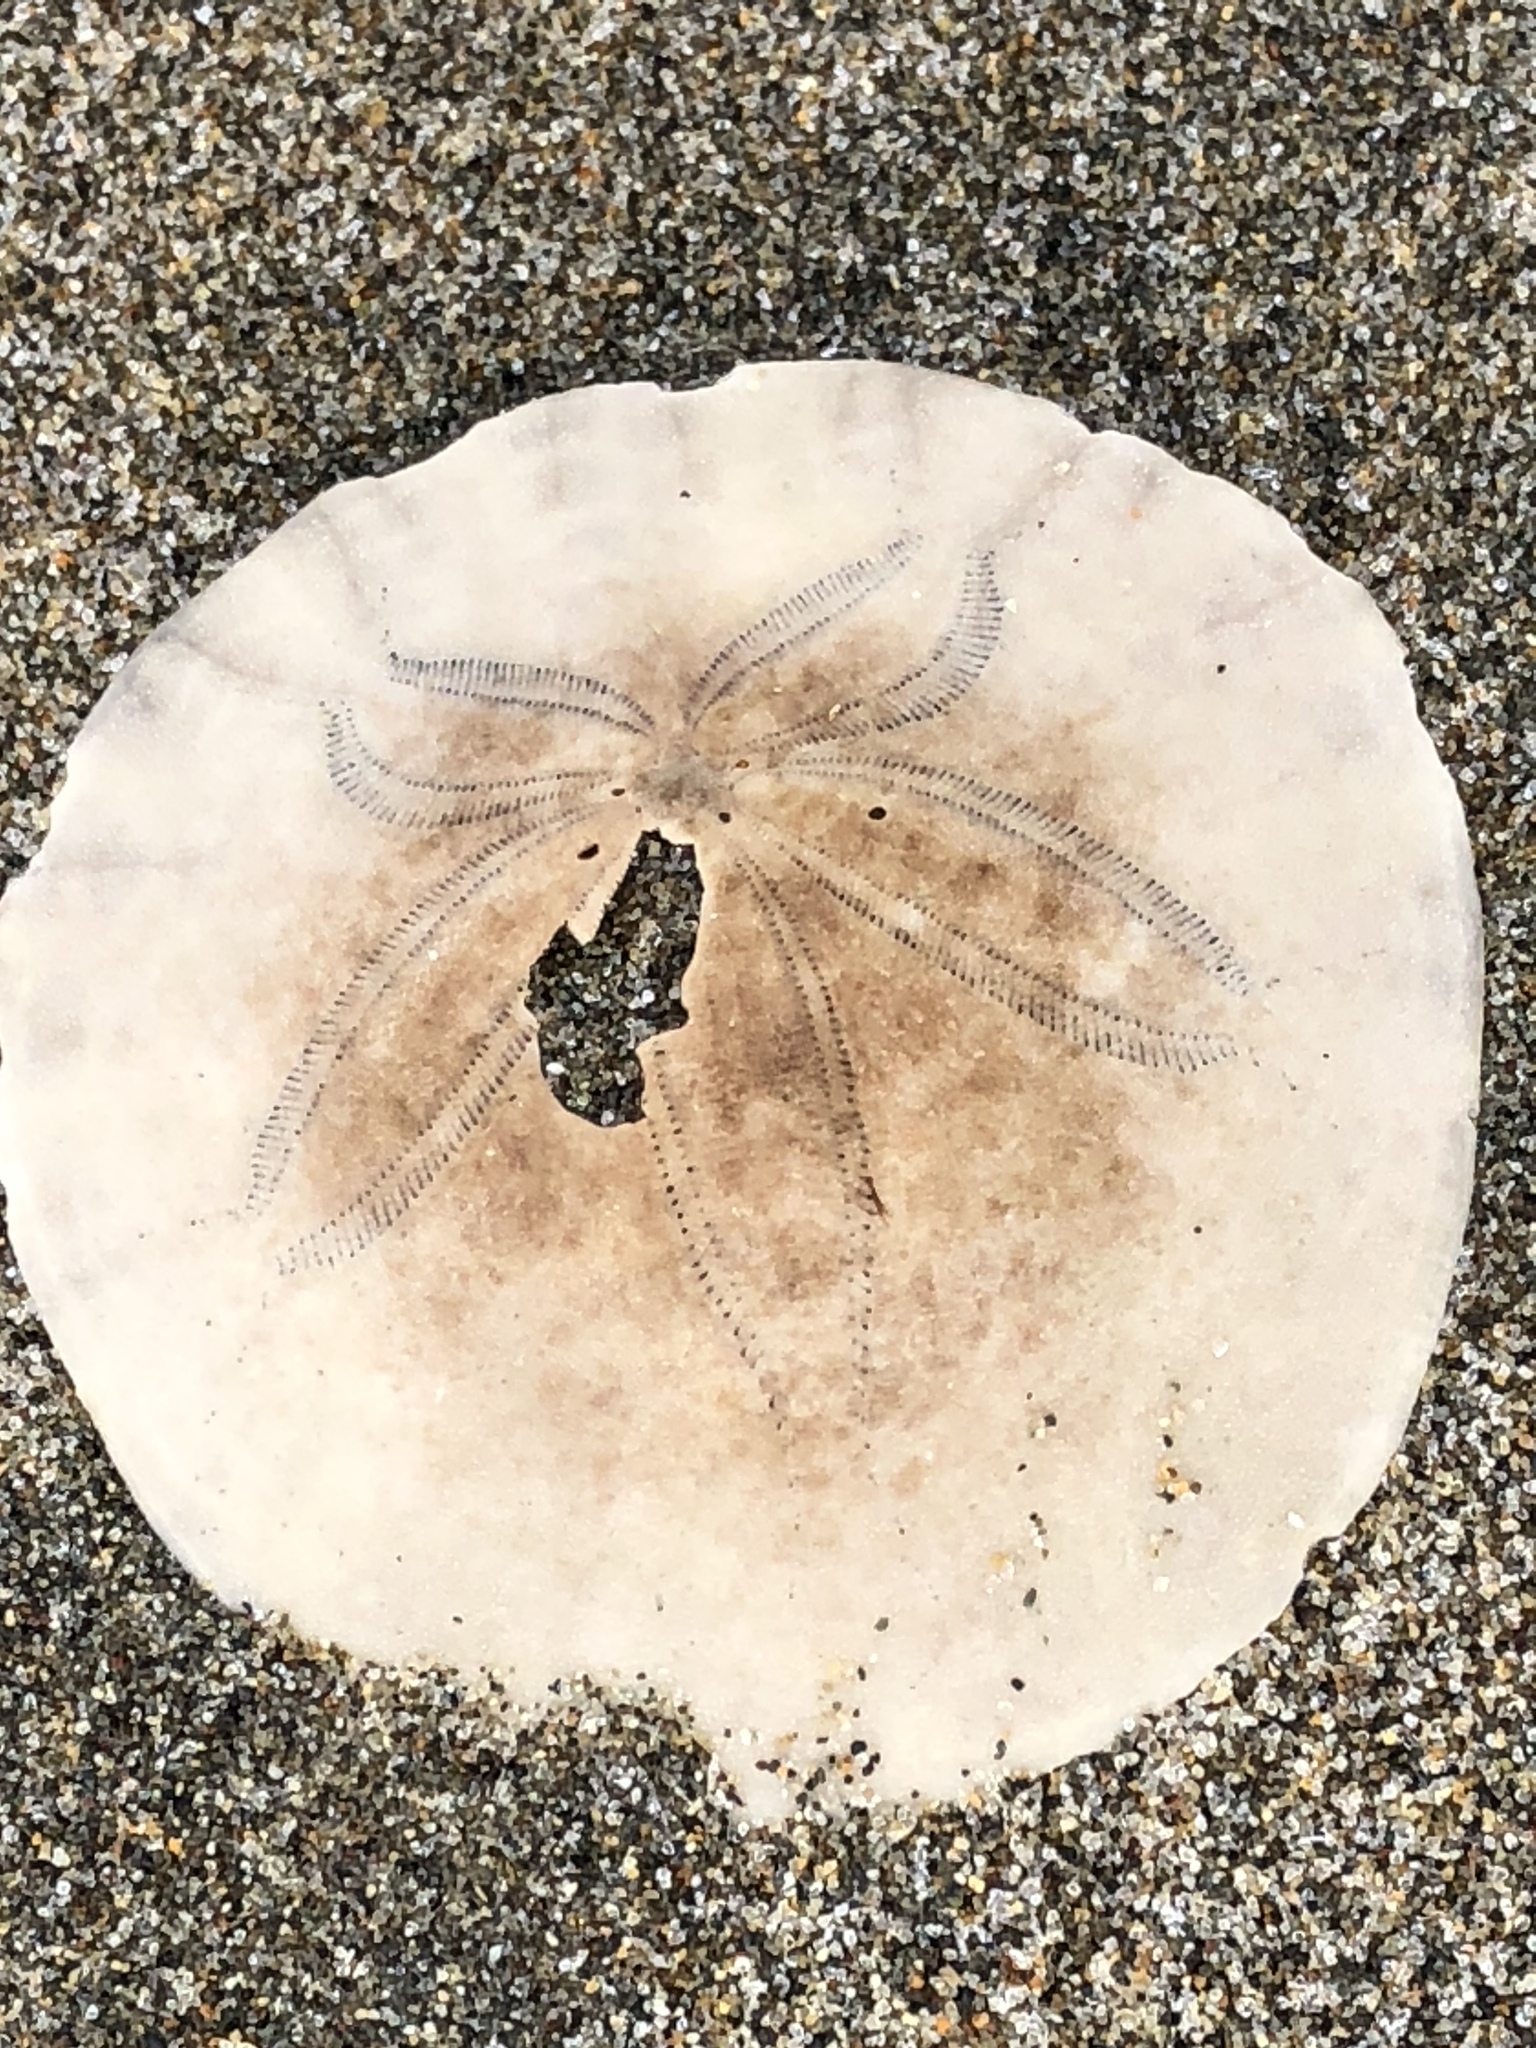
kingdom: Animalia
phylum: Echinodermata
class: Echinoidea
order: Echinolampadacea
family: Dendrasteridae
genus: Dendraster
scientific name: Dendraster excentricus
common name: Eccentric sand dollar sea urchin
